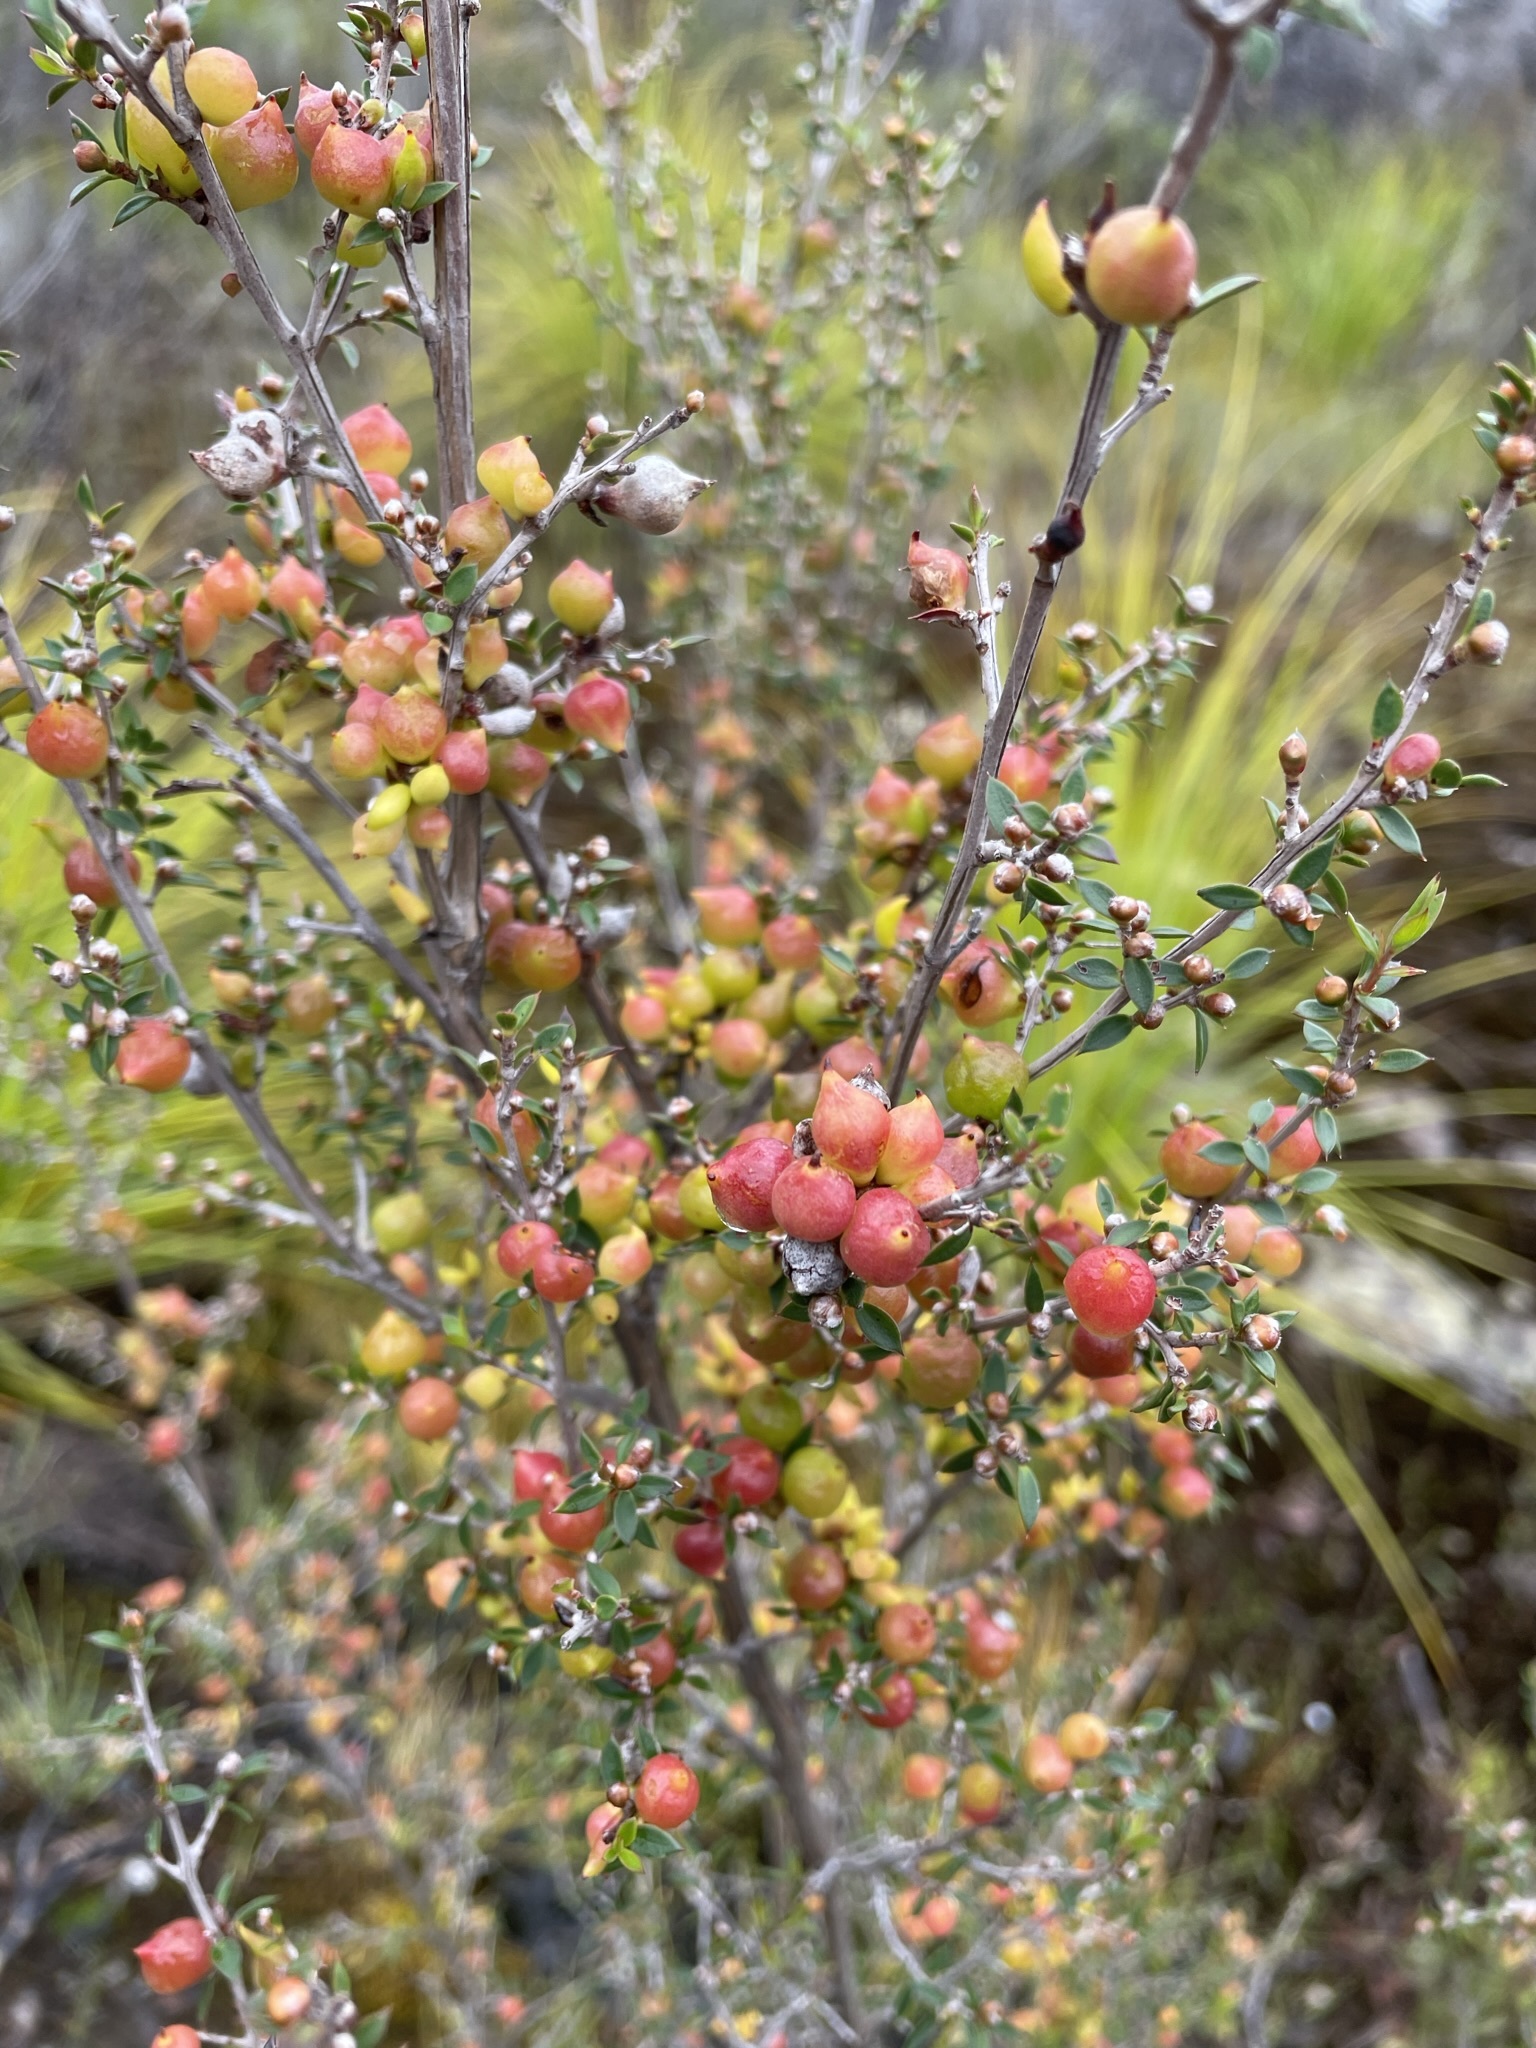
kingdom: Plantae
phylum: Tracheophyta
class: Magnoliopsida
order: Myrtales
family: Myrtaceae
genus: Leptospermum
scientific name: Leptospermum scoparium
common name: Broom tea-tree
